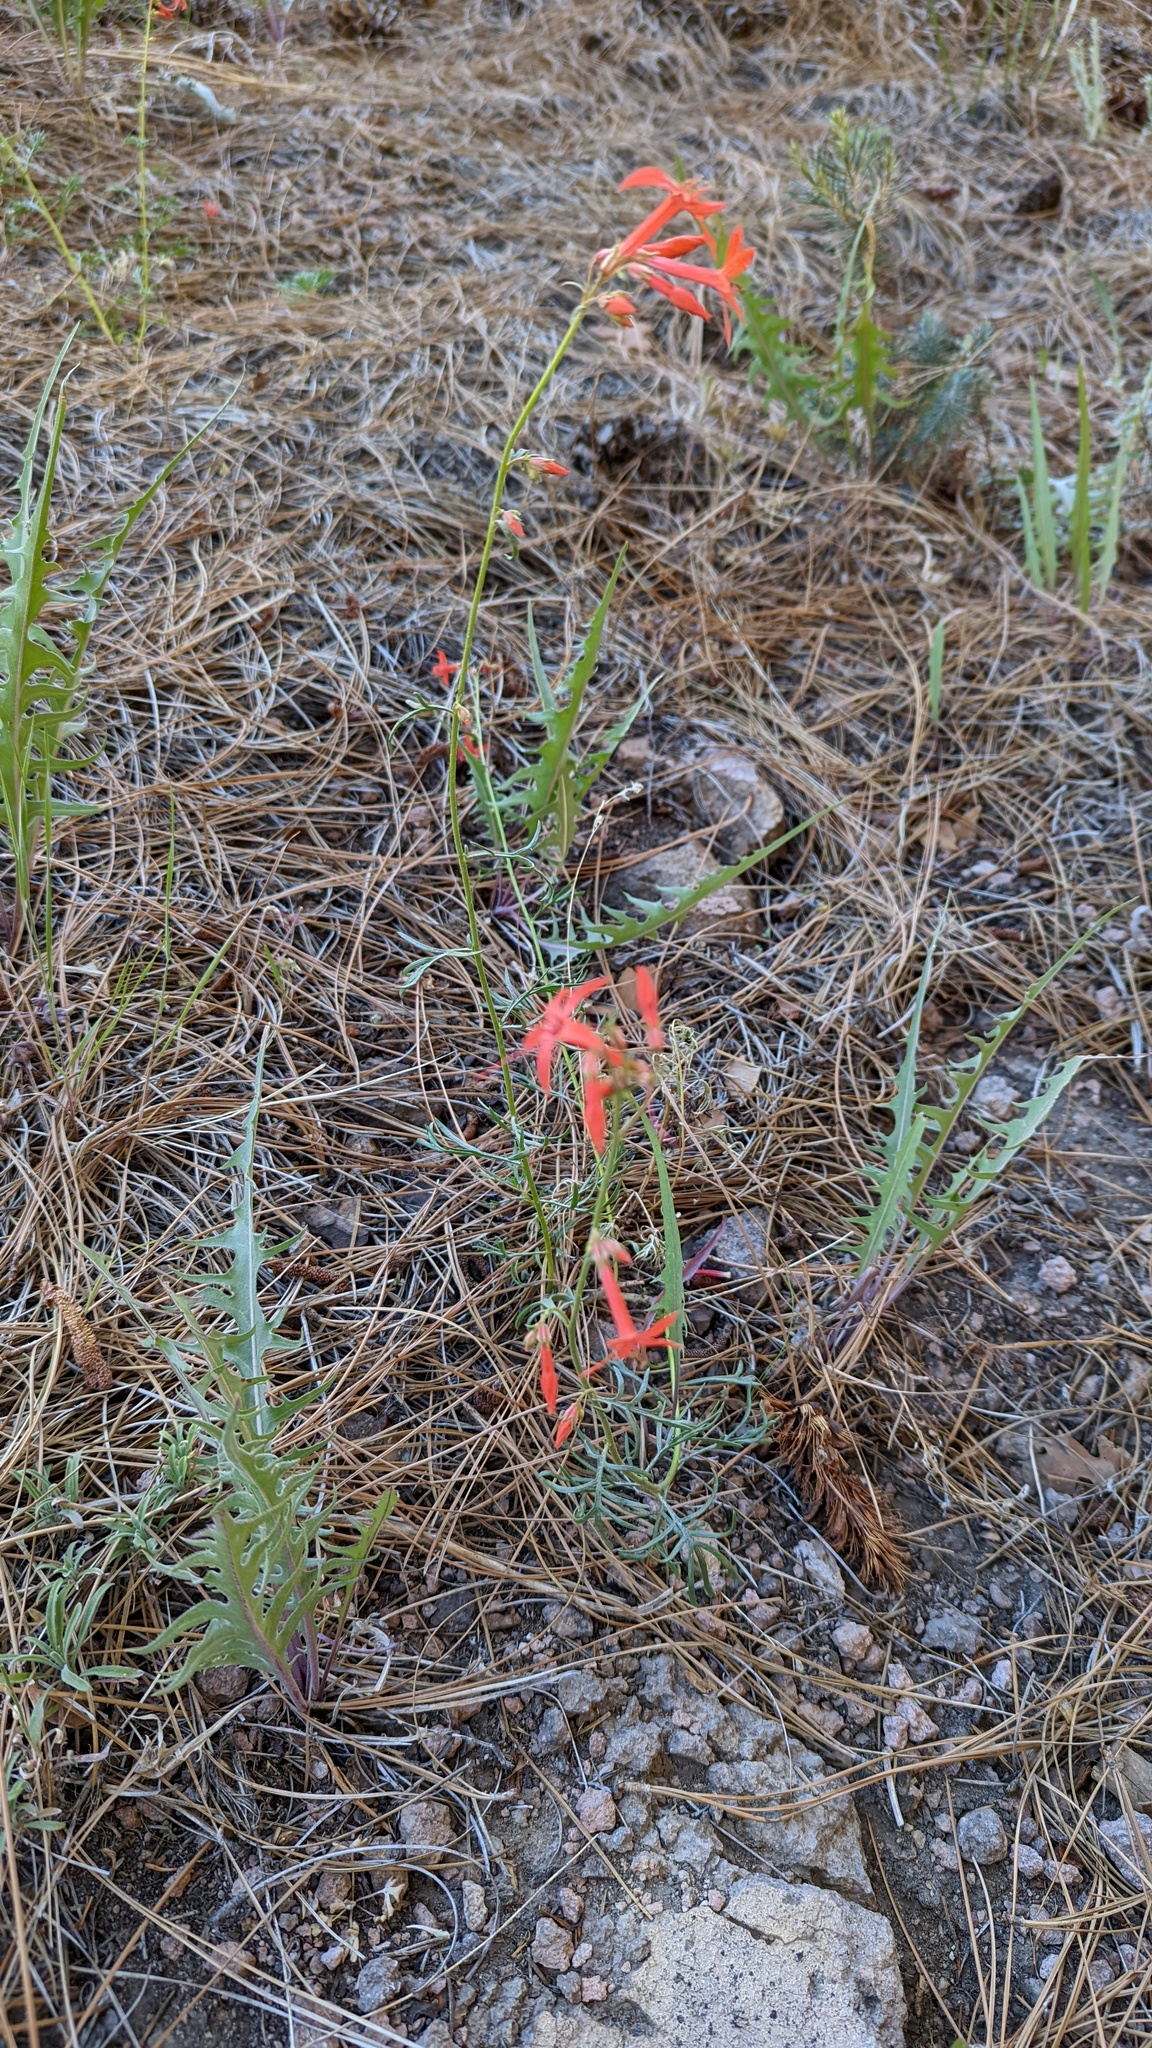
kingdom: Plantae
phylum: Tracheophyta
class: Magnoliopsida
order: Ericales
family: Polemoniaceae
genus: Ipomopsis
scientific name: Ipomopsis aggregata
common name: Scarlet gilia
